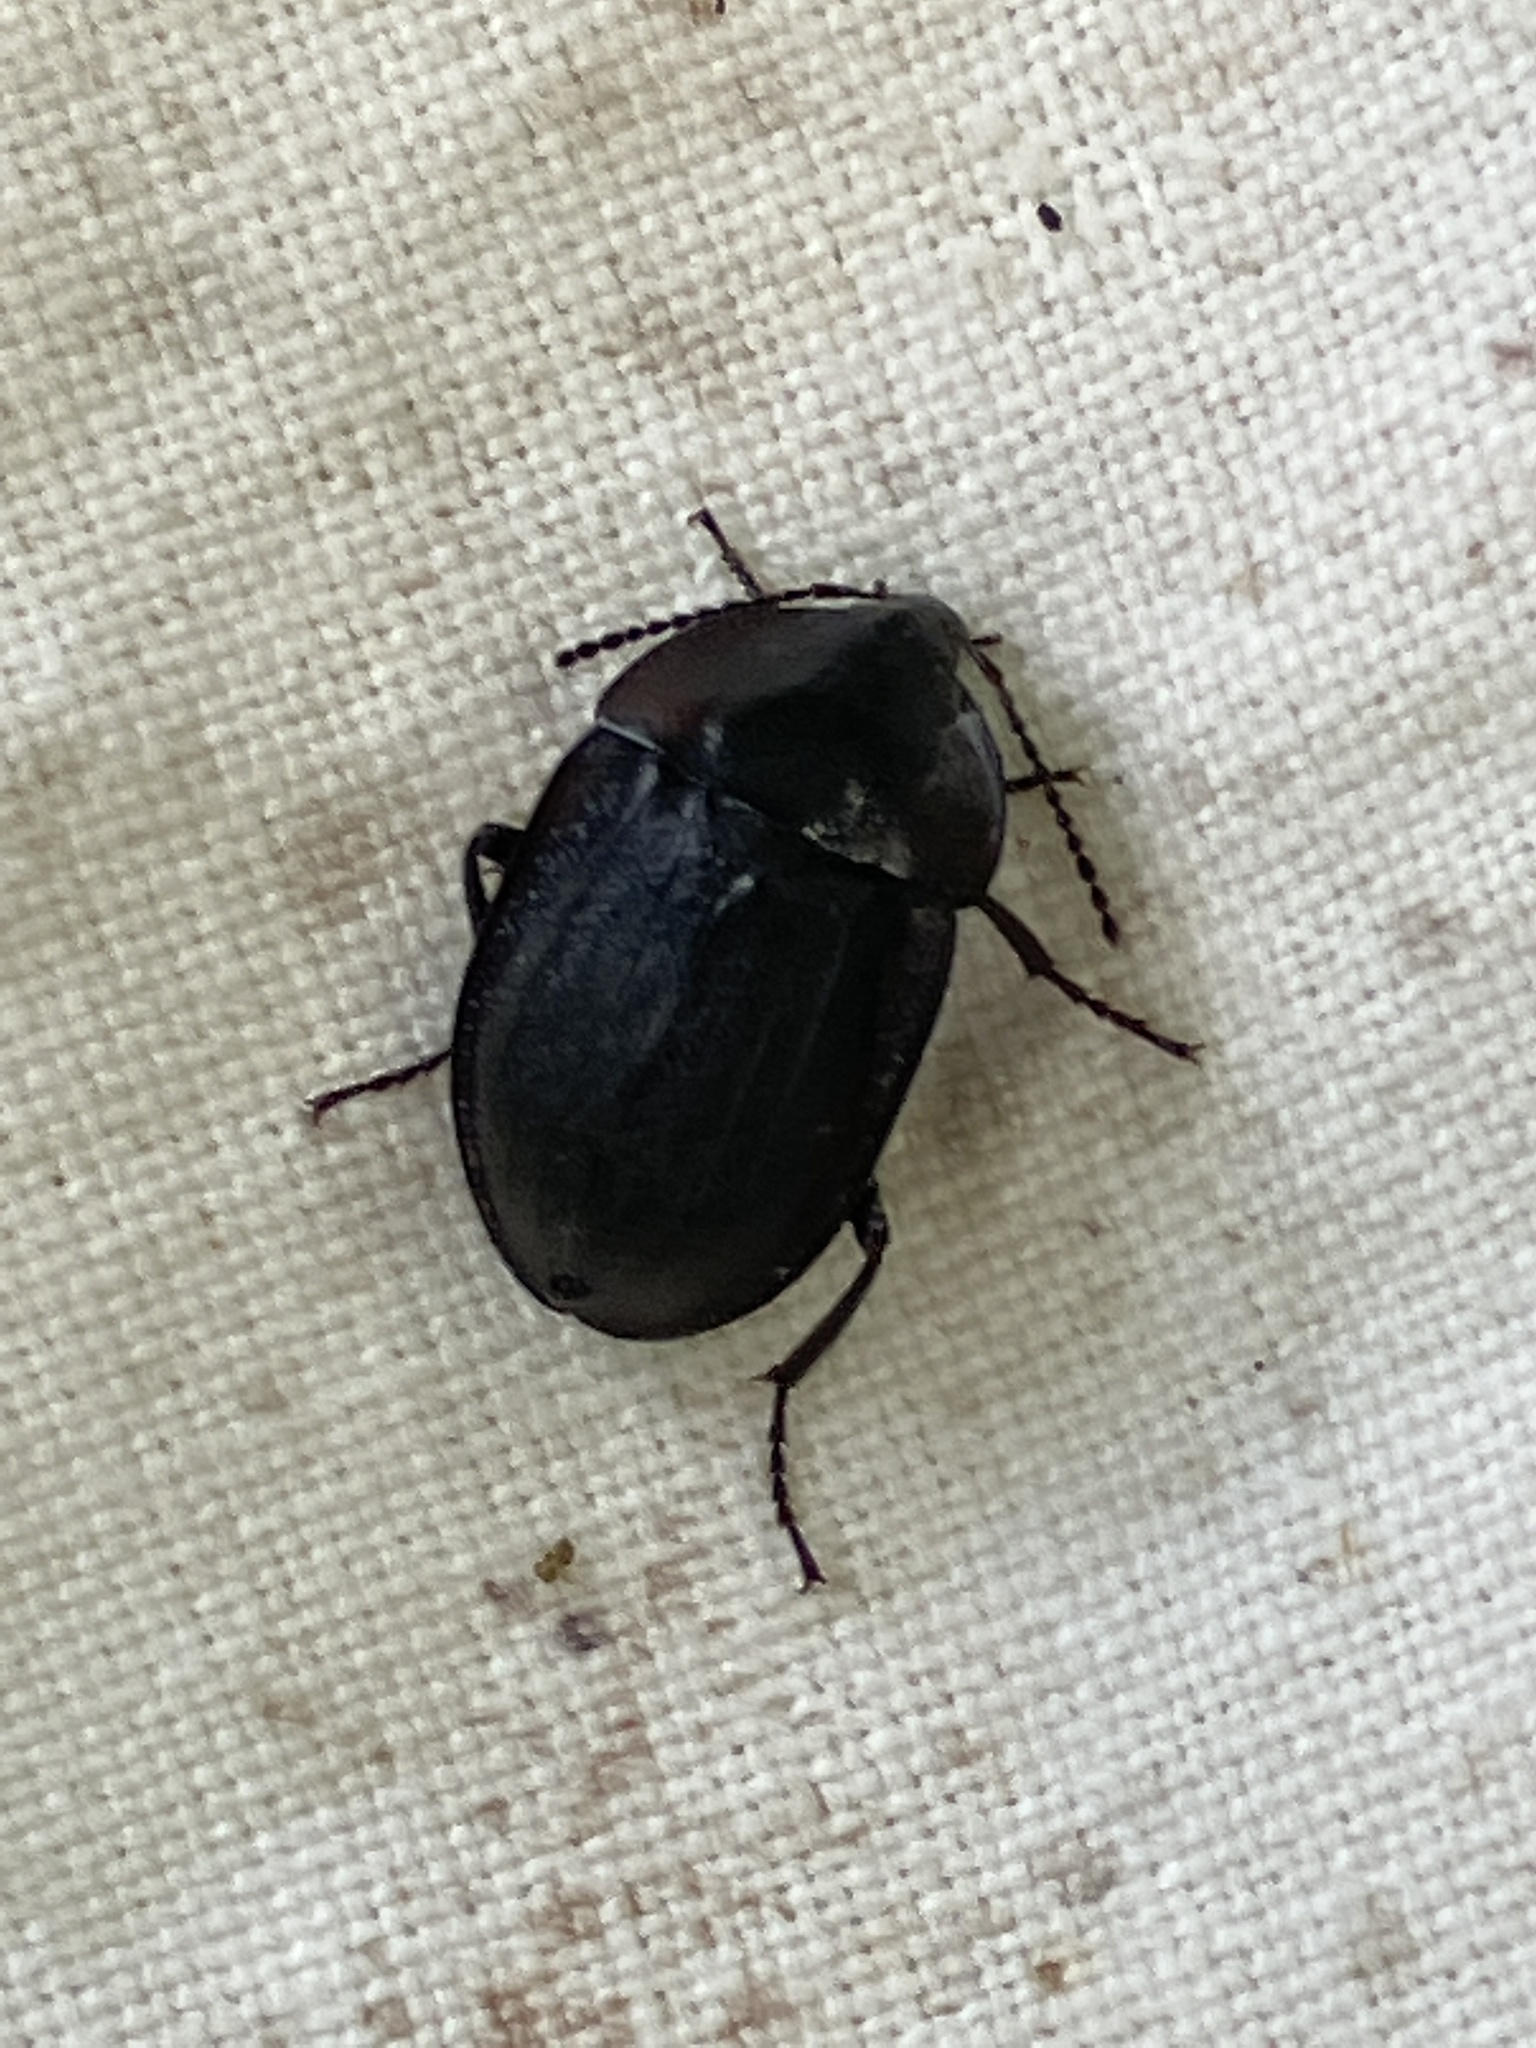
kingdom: Animalia
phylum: Arthropoda
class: Insecta
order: Coleoptera
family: Staphylinidae
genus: Silpha
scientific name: Silpha atrata
